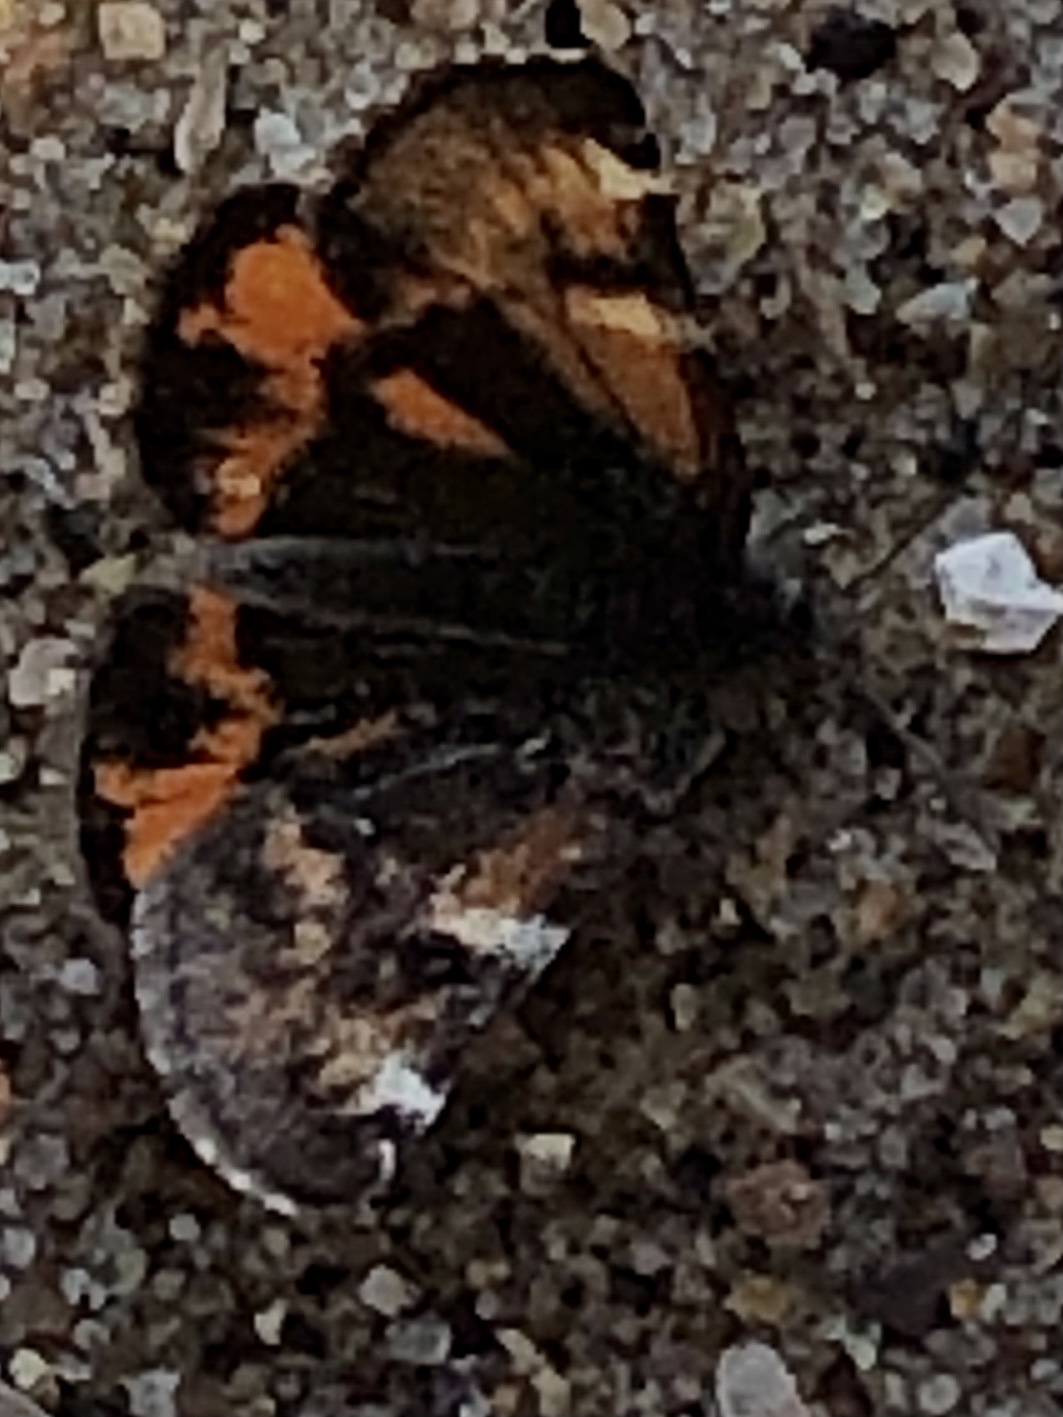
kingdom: Animalia
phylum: Arthropoda
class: Insecta
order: Lepidoptera
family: Geometridae
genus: Archiearis
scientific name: Archiearis infans
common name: First born geometer
